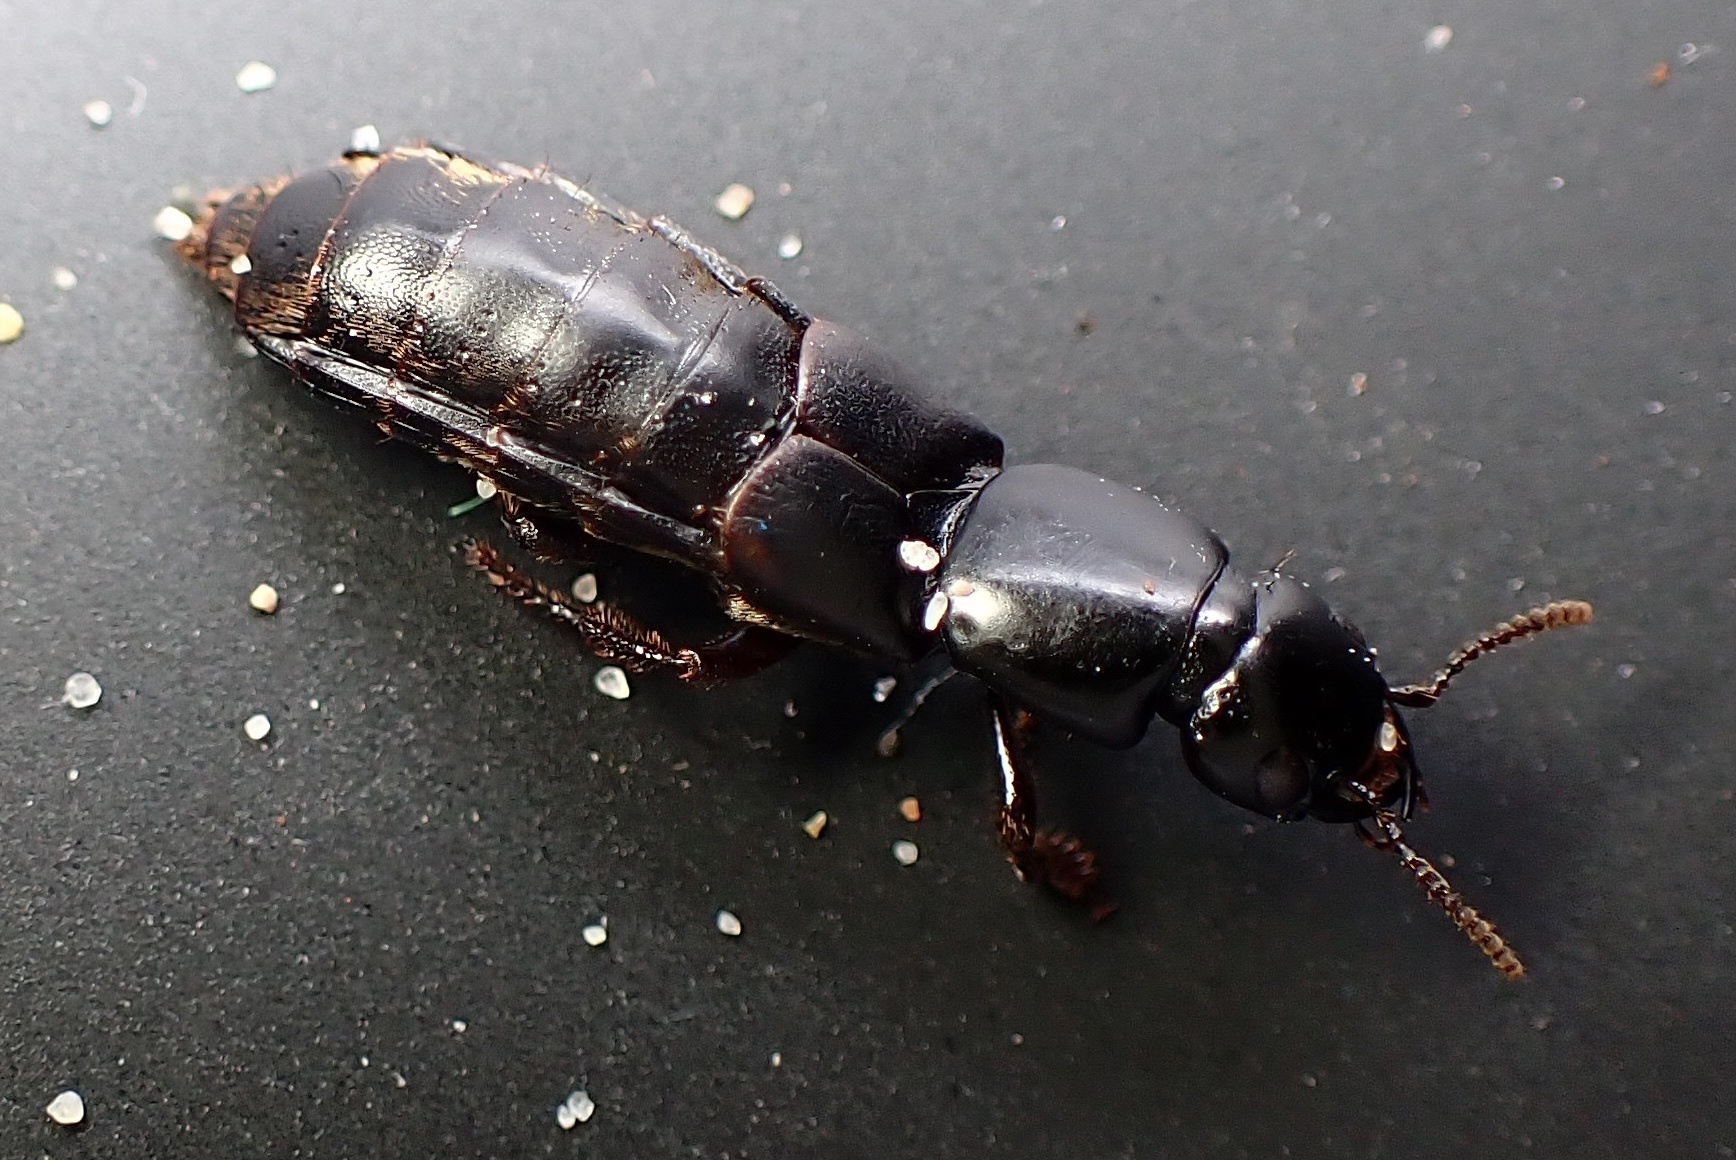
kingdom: Animalia
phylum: Arthropoda
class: Insecta
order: Coleoptera
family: Staphylinidae
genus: Hadrotes
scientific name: Hadrotes crassus
